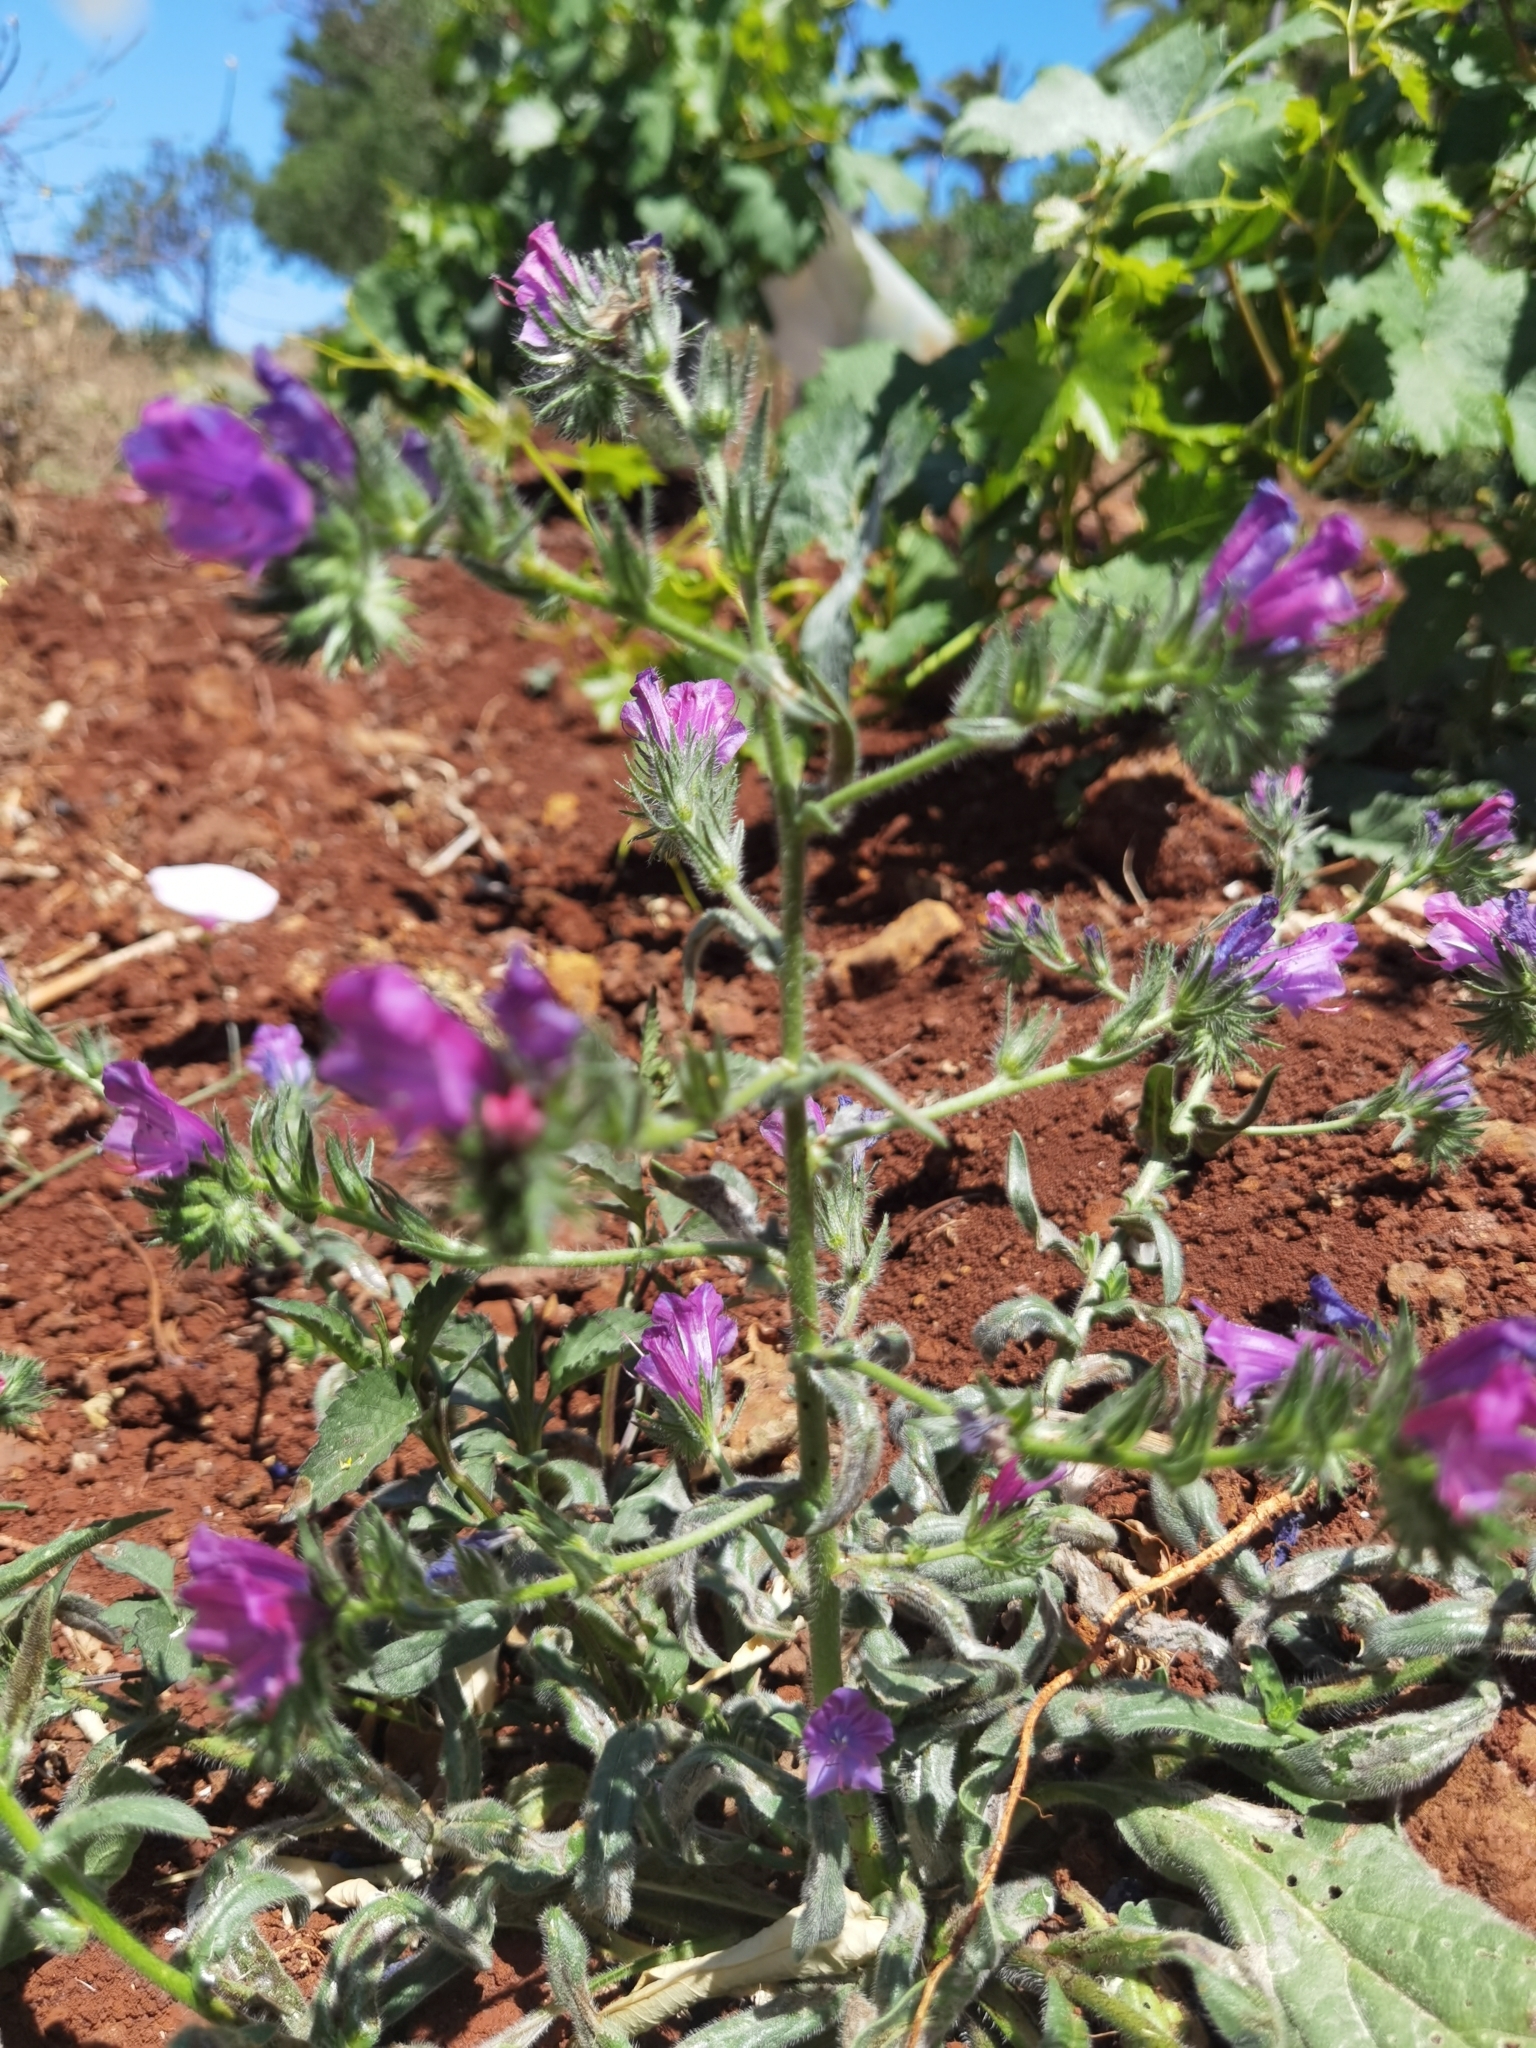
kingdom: Plantae
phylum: Tracheophyta
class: Magnoliopsida
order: Boraginales
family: Boraginaceae
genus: Echium
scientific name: Echium plantagineum
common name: Purple viper's-bugloss
